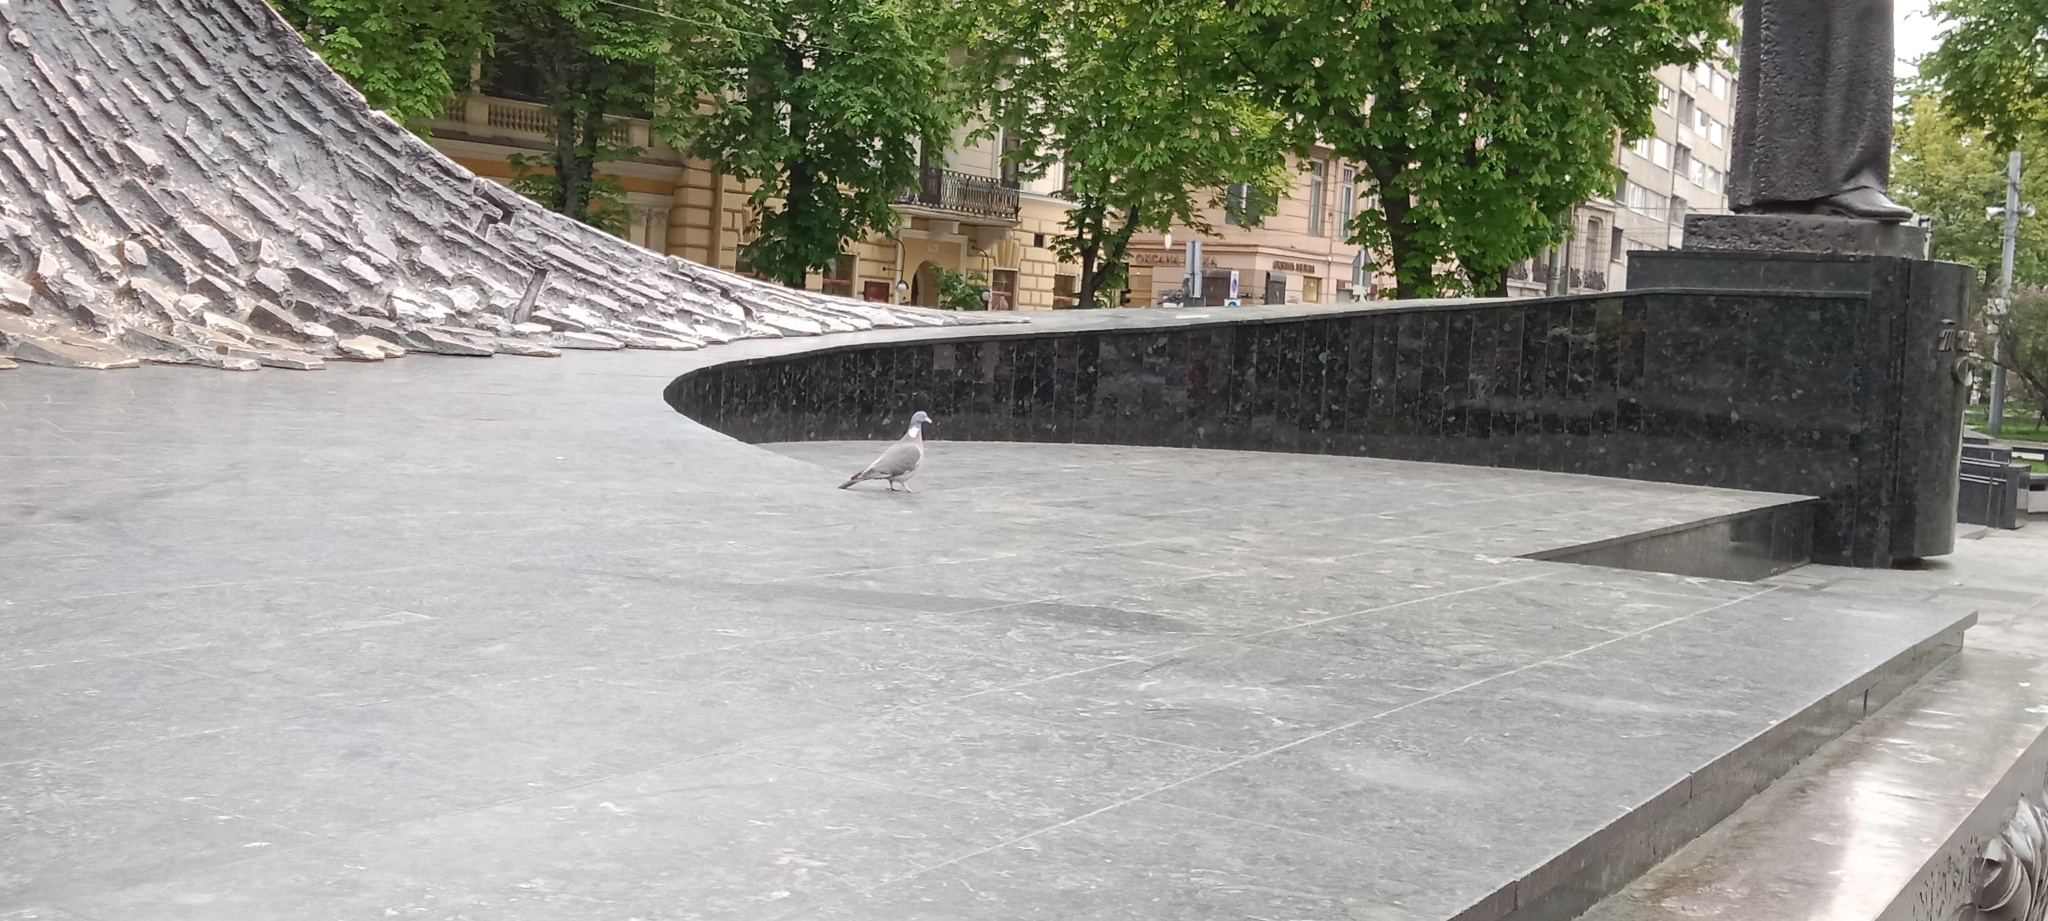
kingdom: Animalia
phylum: Chordata
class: Aves
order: Columbiformes
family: Columbidae
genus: Columba
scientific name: Columba palumbus
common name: Common wood pigeon
